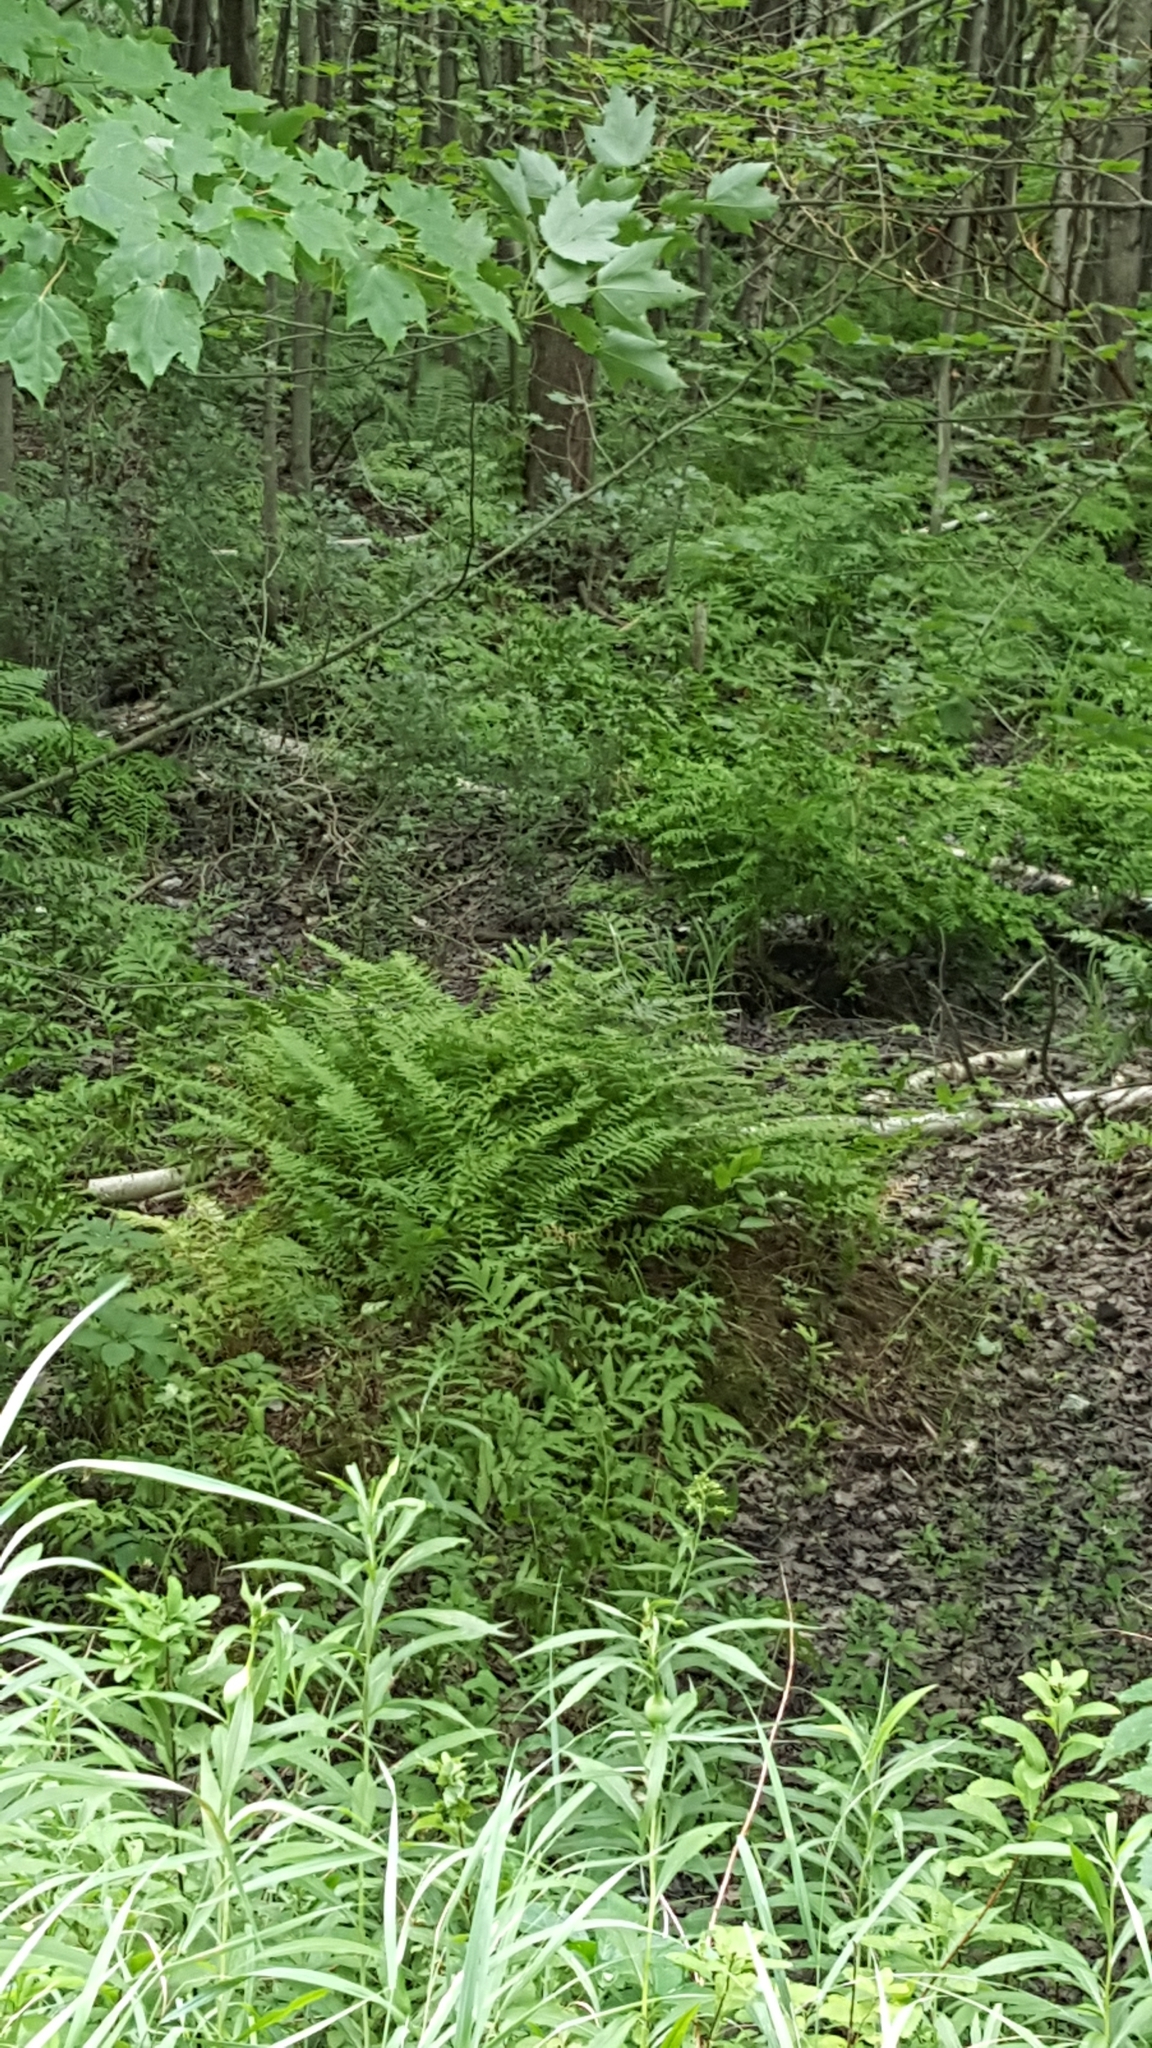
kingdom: Plantae
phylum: Tracheophyta
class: Polypodiopsida
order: Polypodiales
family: Onocleaceae
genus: Onoclea
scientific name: Onoclea sensibilis
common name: Sensitive fern
